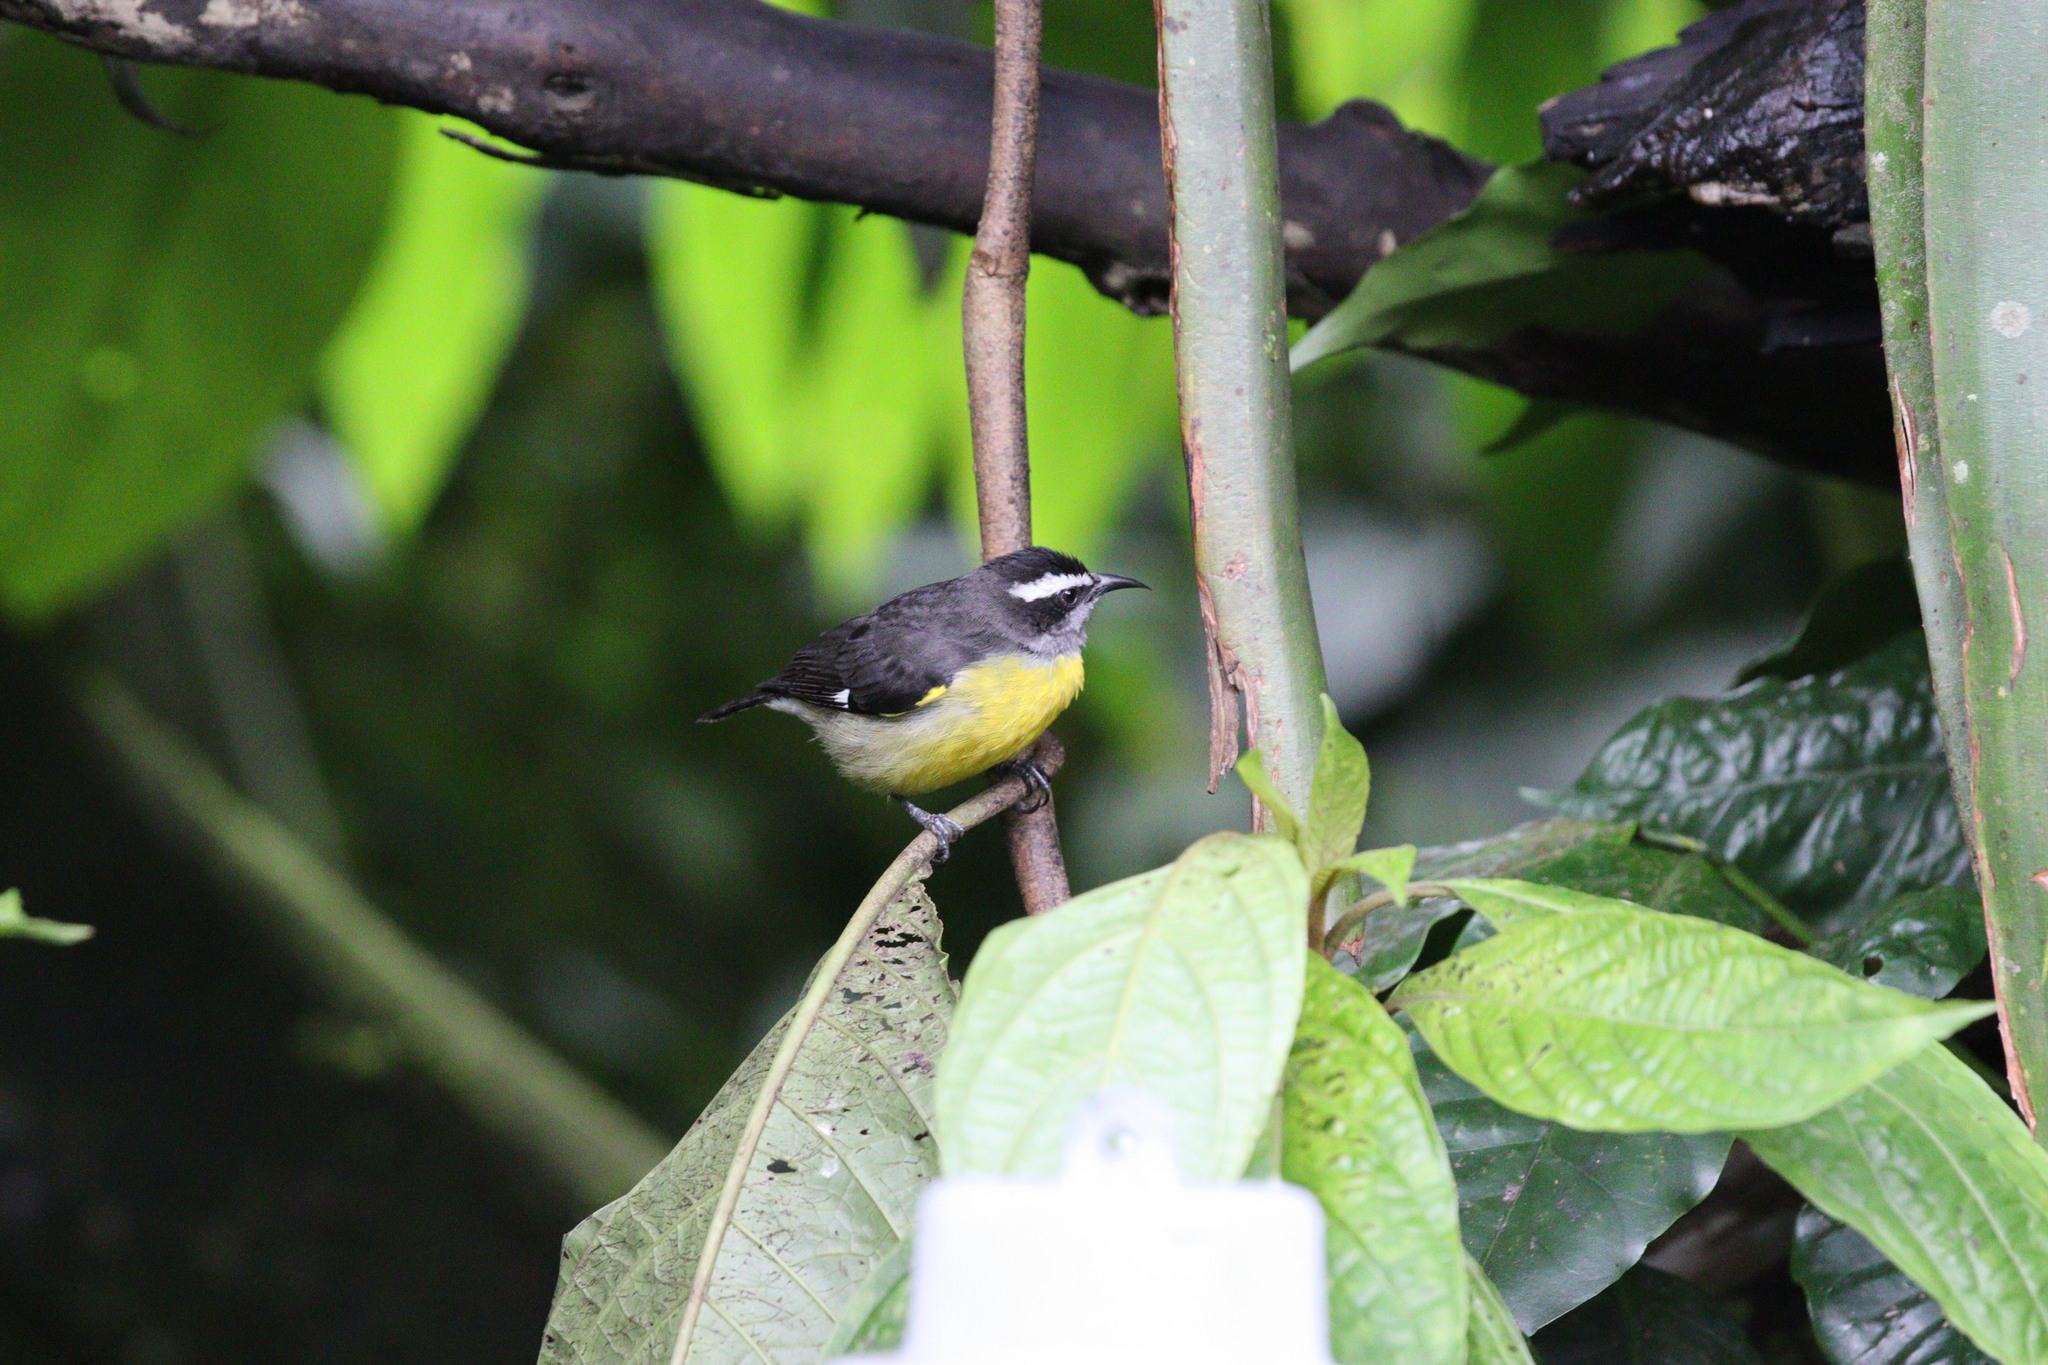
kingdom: Animalia
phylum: Chordata
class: Aves
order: Passeriformes
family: Thraupidae
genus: Coereba
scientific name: Coereba flaveola
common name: Bananaquit
